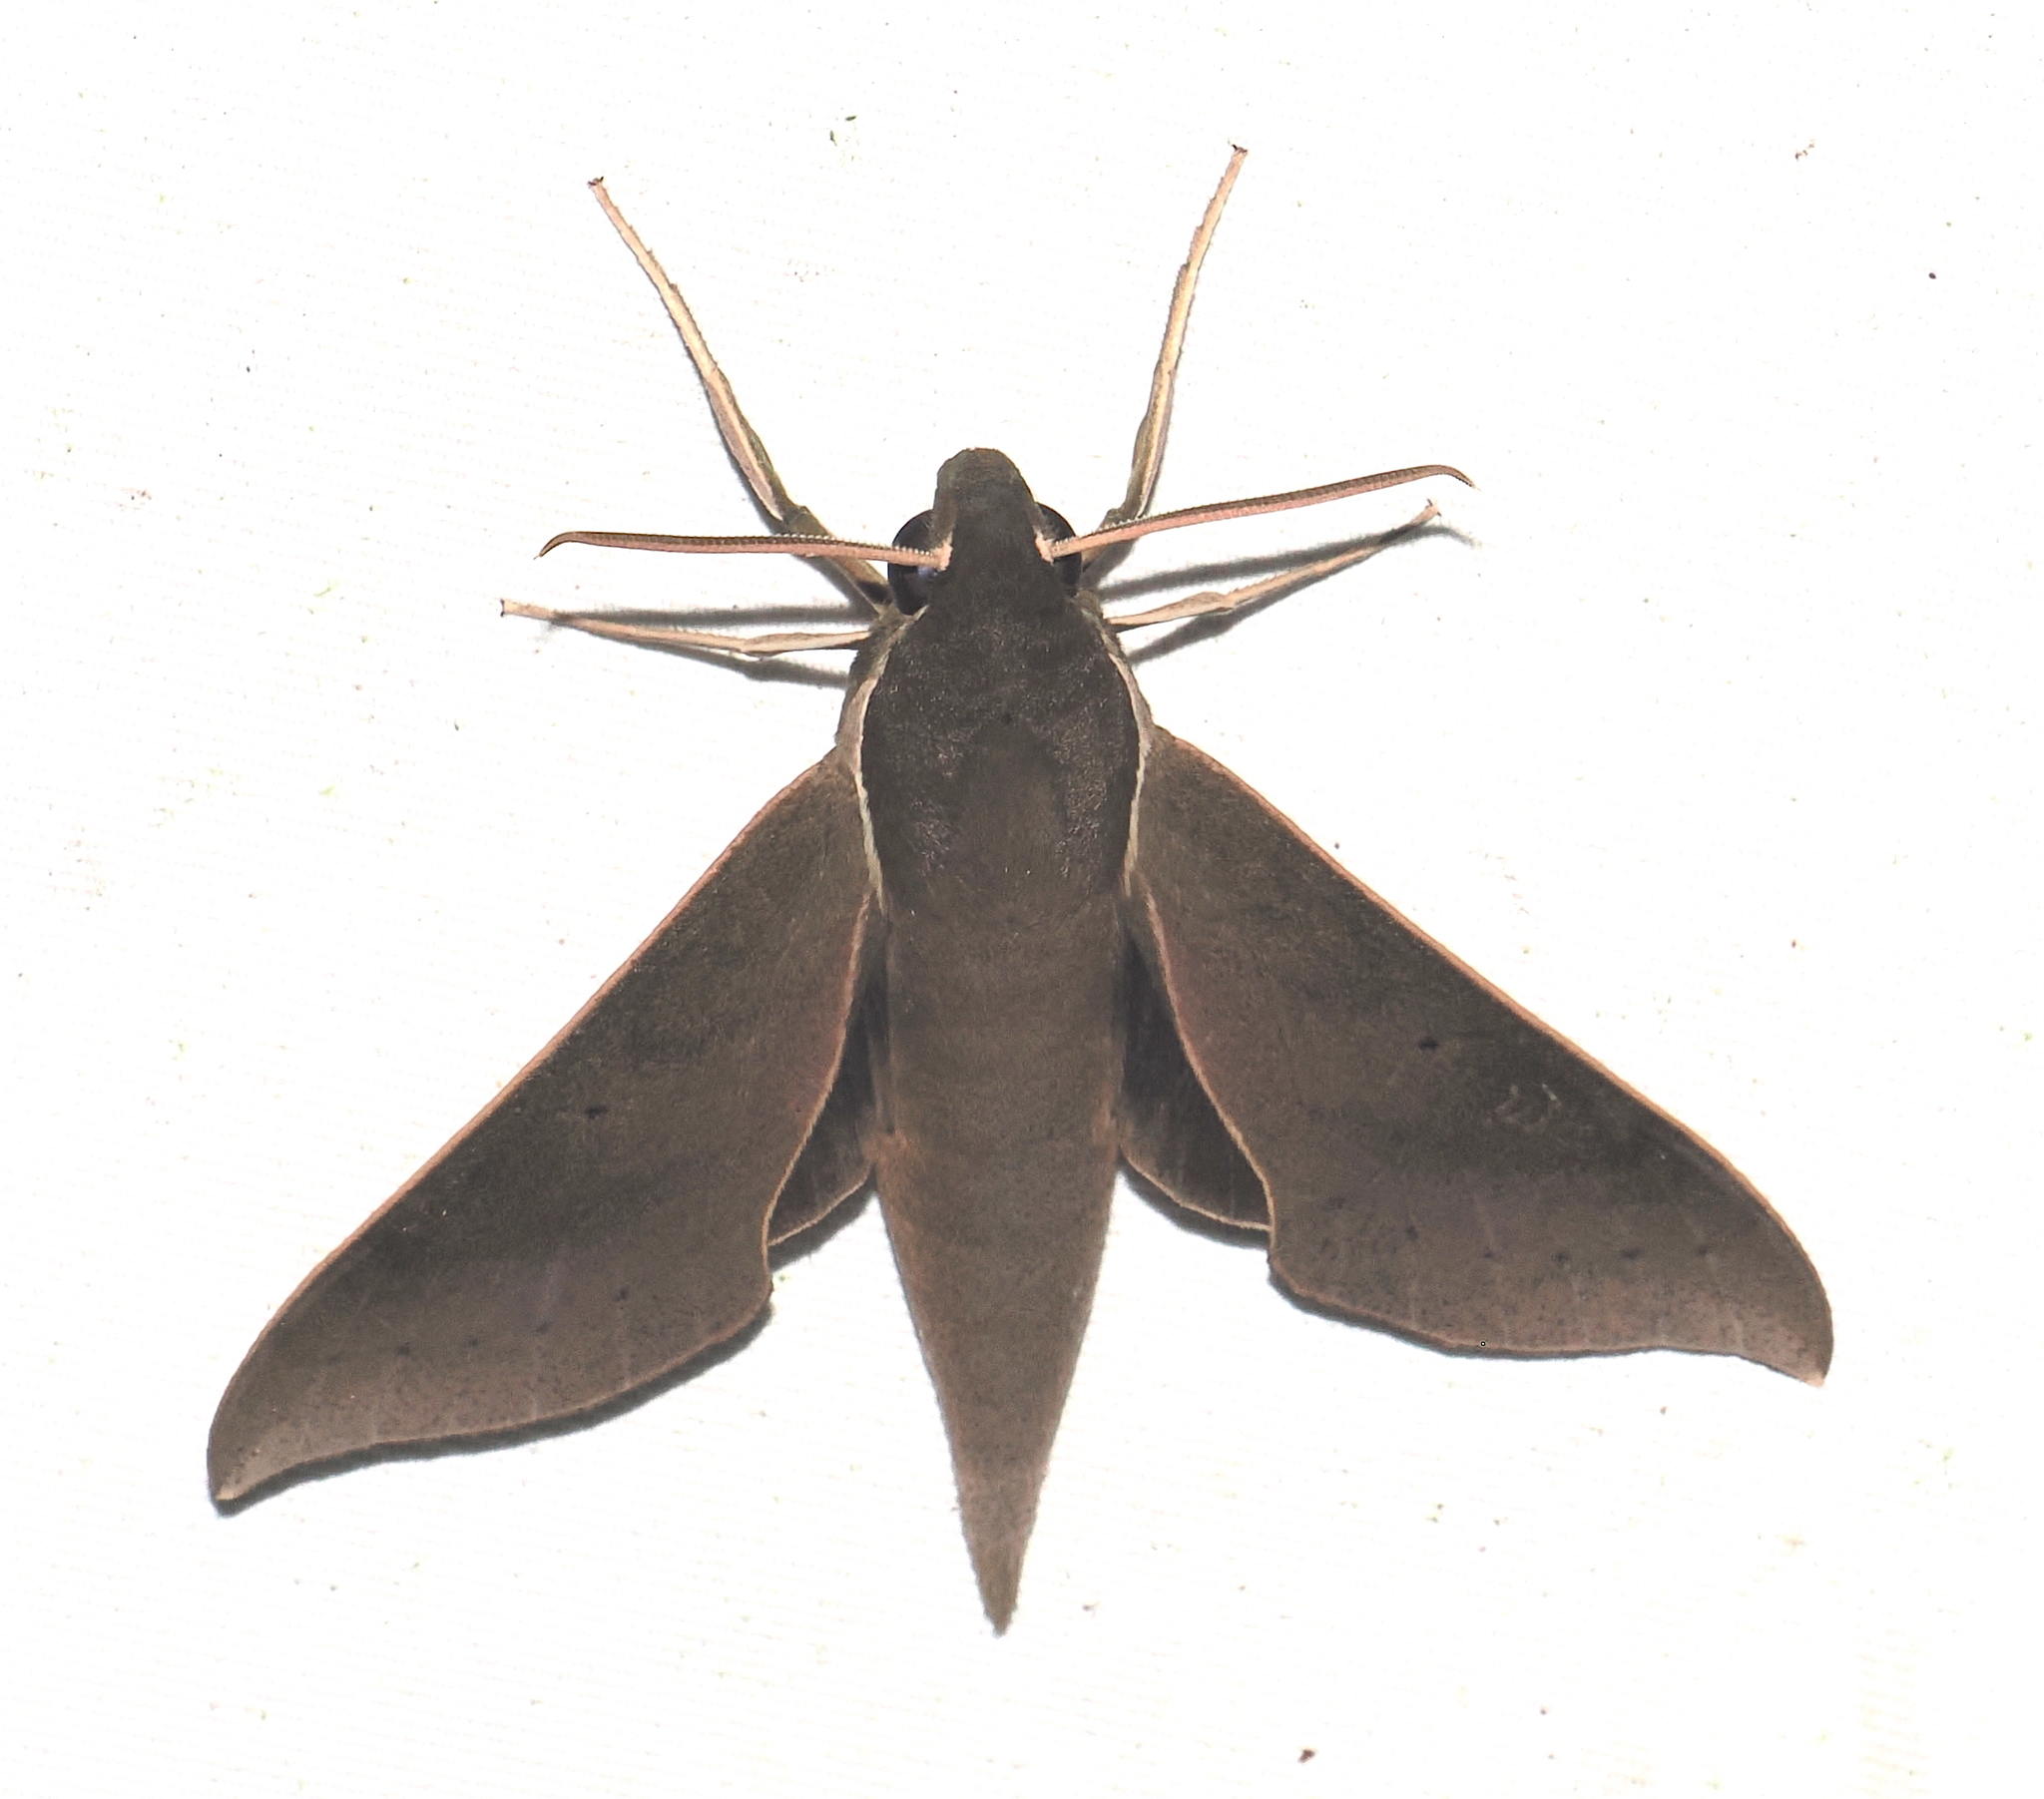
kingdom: Animalia
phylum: Arthropoda
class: Insecta
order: Lepidoptera
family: Sphingidae
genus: Xylophanes
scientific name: Xylophanes porcus
